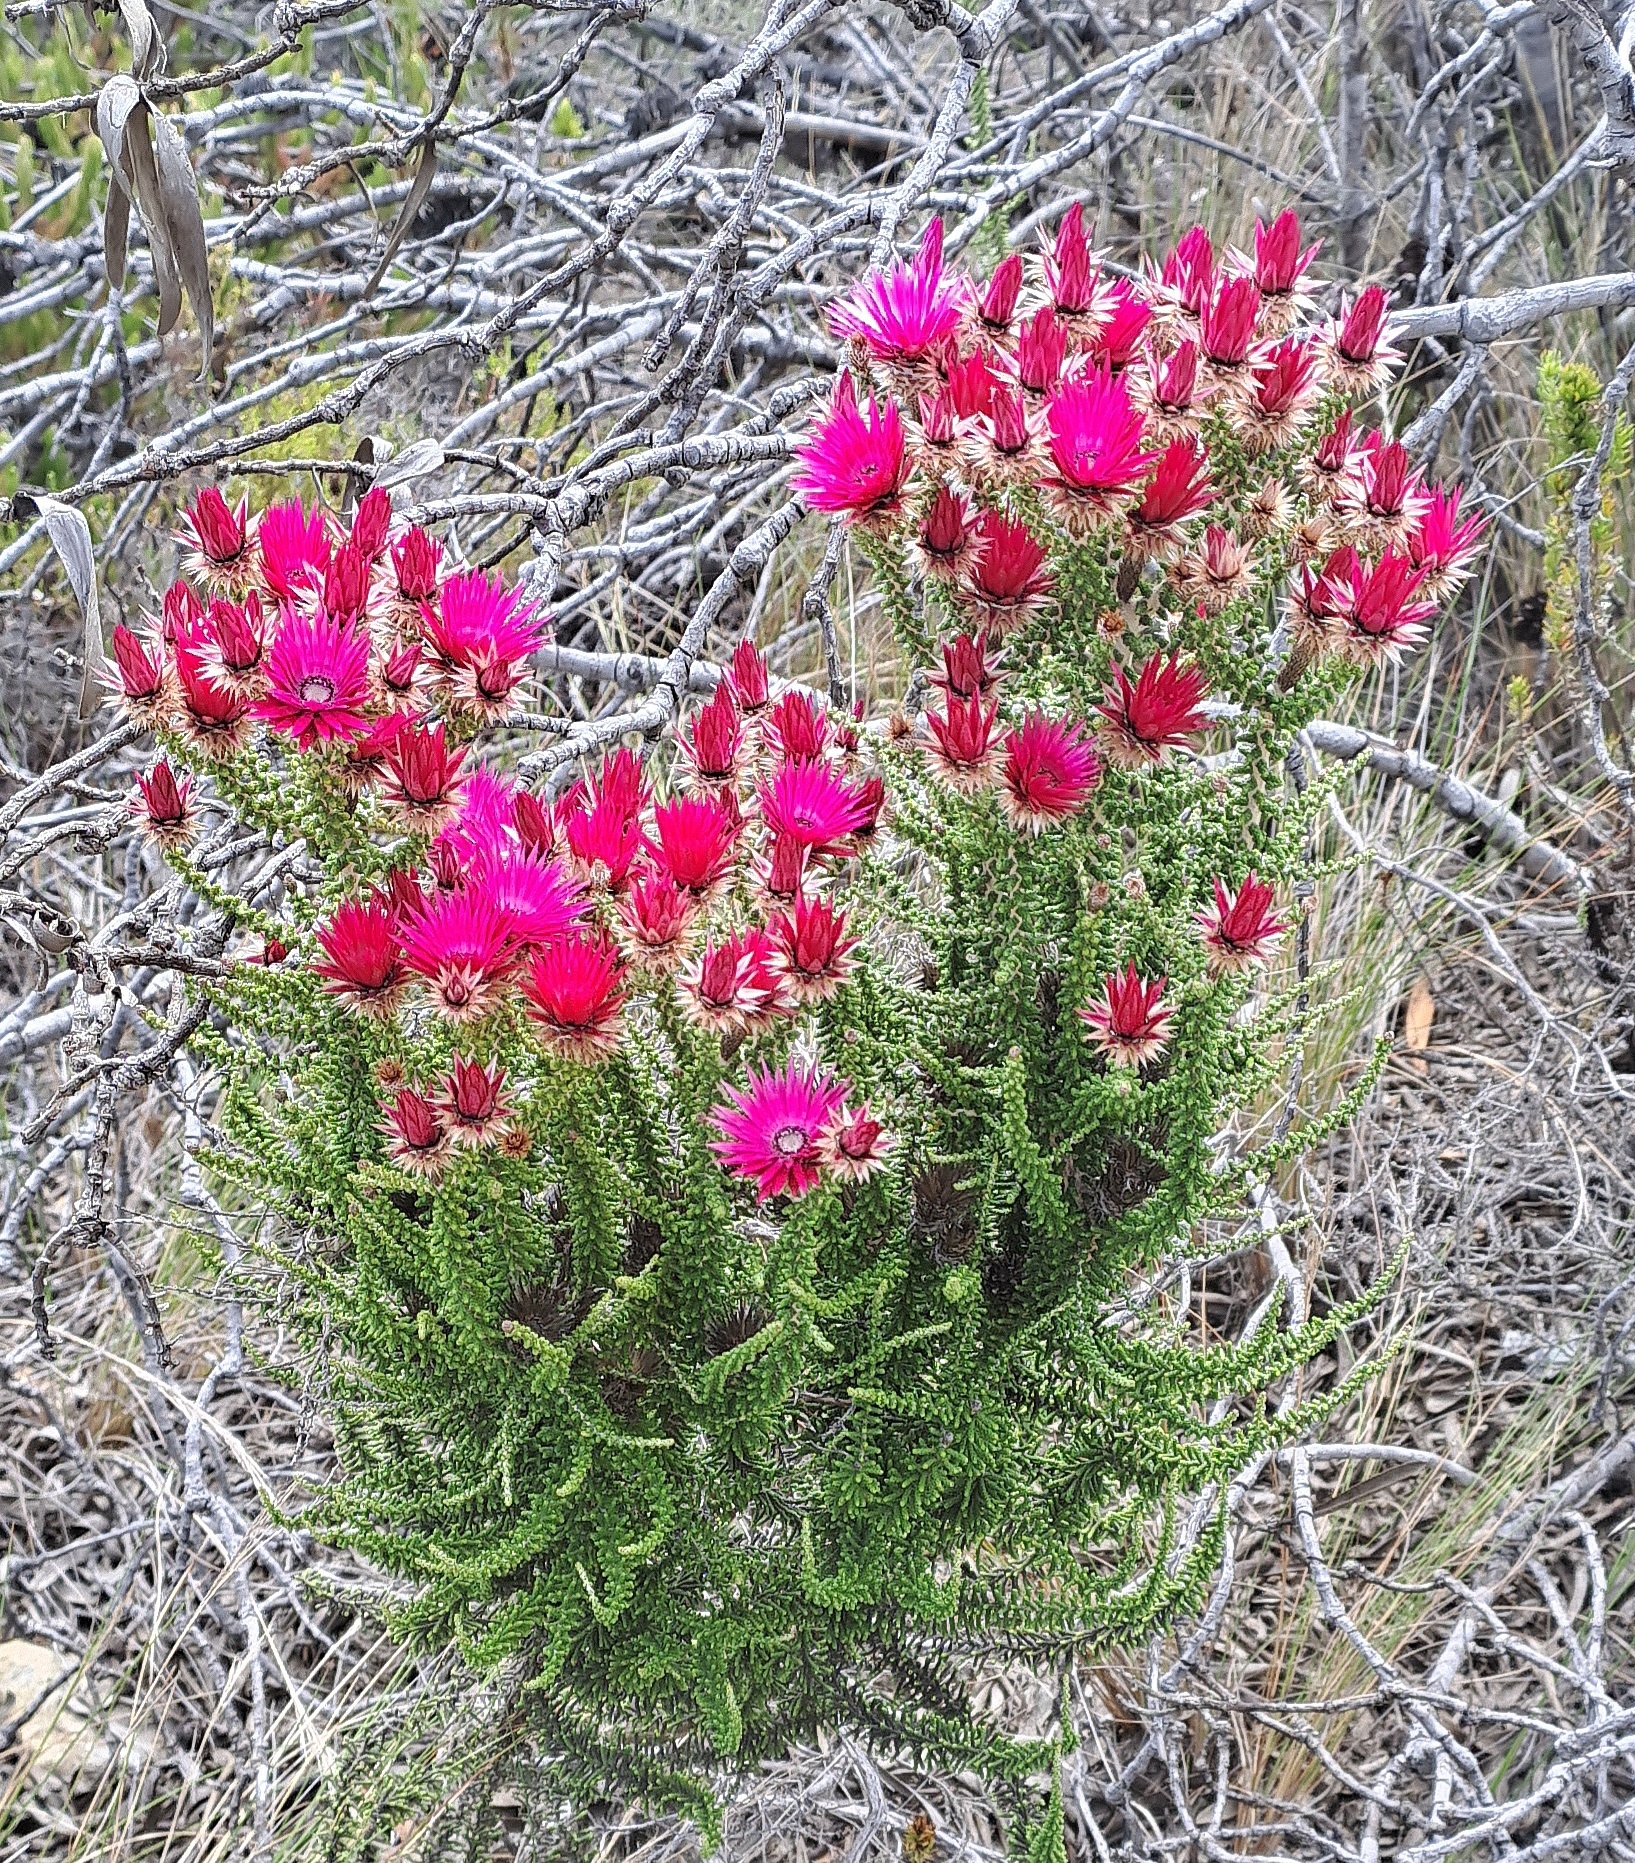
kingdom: Plantae
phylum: Tracheophyta
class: Magnoliopsida
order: Asterales
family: Asteraceae
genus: Phaenocoma
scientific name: Phaenocoma prolifera
